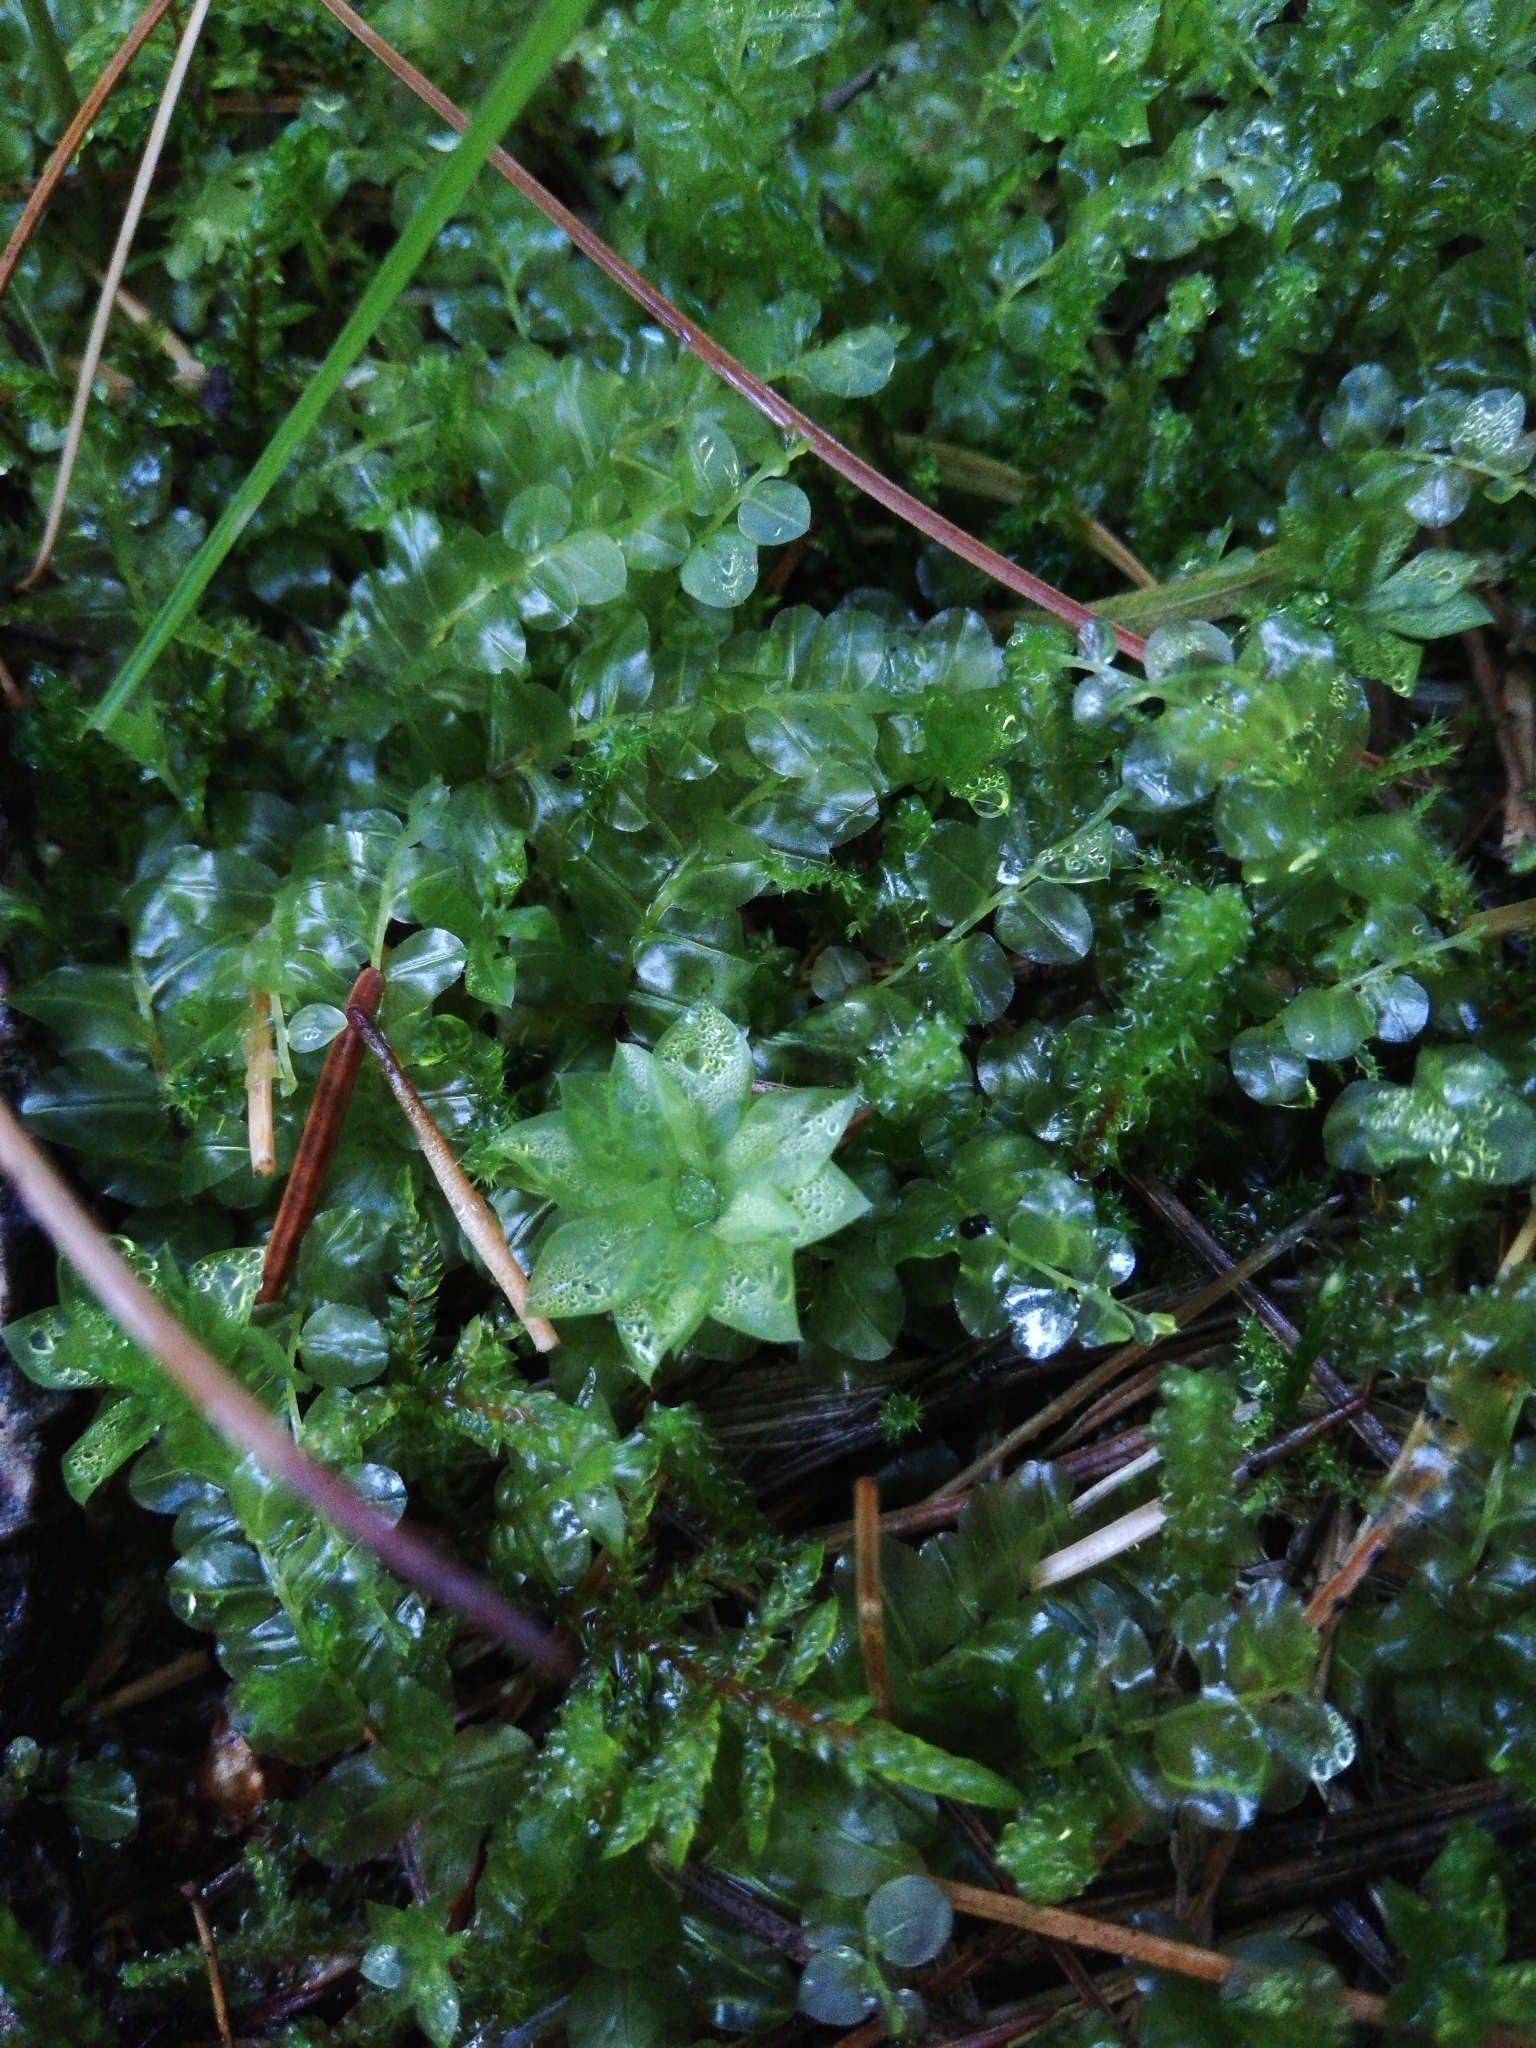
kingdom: Plantae
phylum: Bryophyta
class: Bryopsida
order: Bryales
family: Mniaceae
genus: Plagiomnium
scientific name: Plagiomnium affine
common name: Many-fruited thyme-moss
